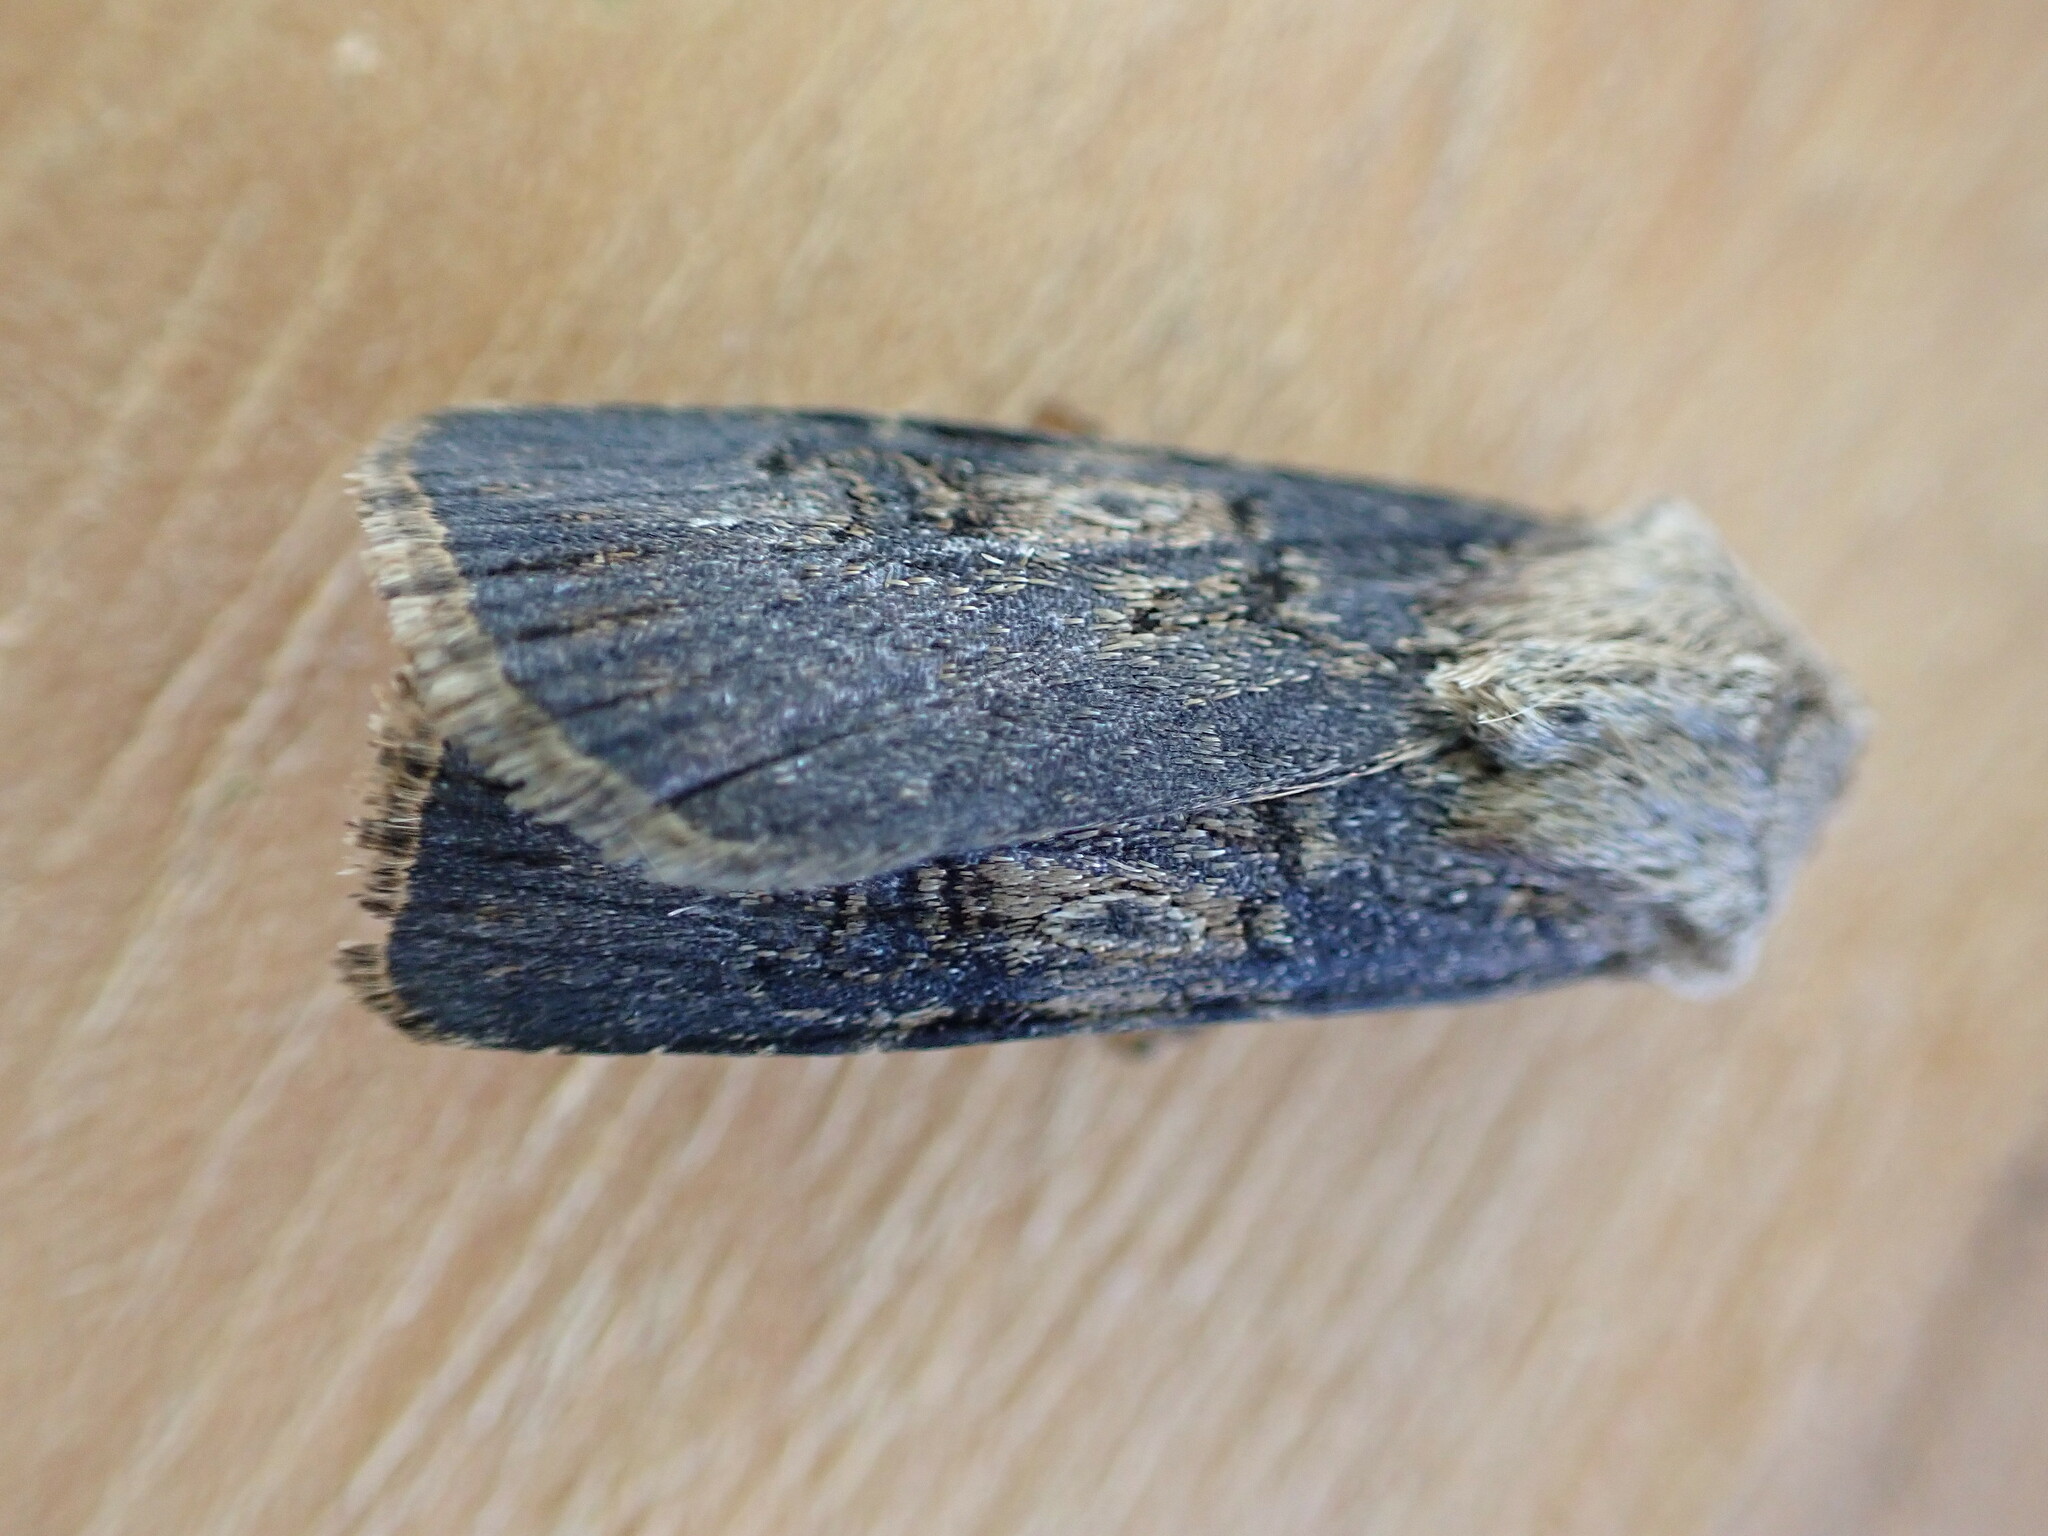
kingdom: Animalia
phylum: Arthropoda
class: Insecta
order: Lepidoptera
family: Noctuidae
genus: Agrotis
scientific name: Agrotis puta
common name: Shuttle-shaped dart
